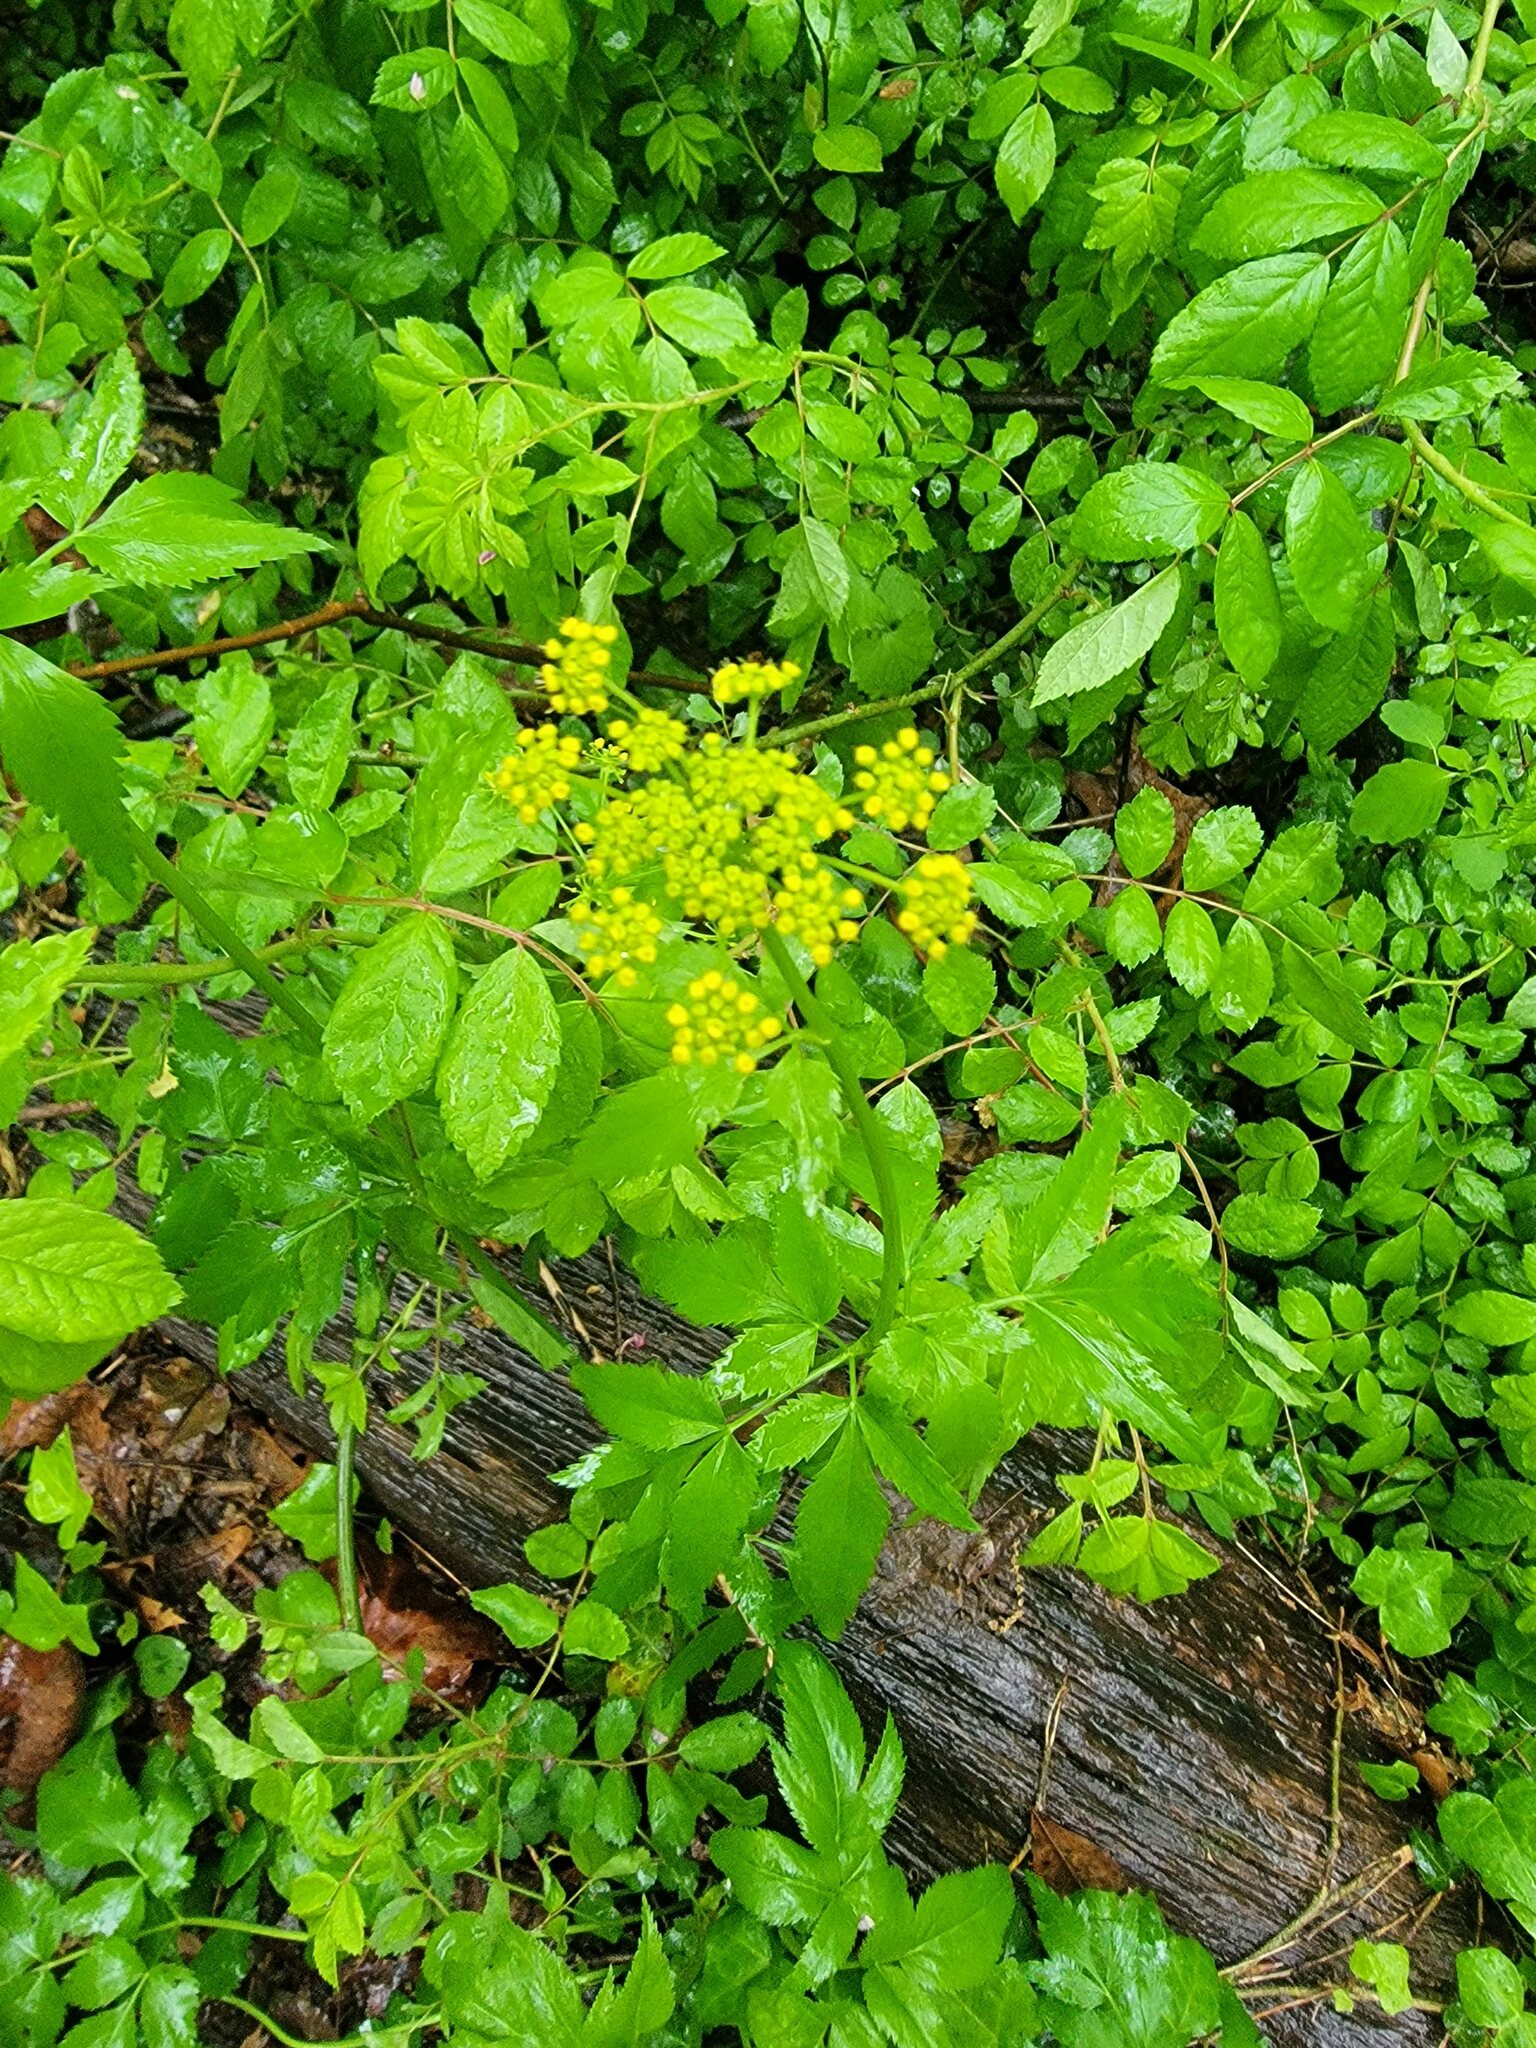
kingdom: Plantae
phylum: Tracheophyta
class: Magnoliopsida
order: Apiales
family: Apiaceae
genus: Zizia
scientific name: Zizia aurea
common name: Golden alexanders
